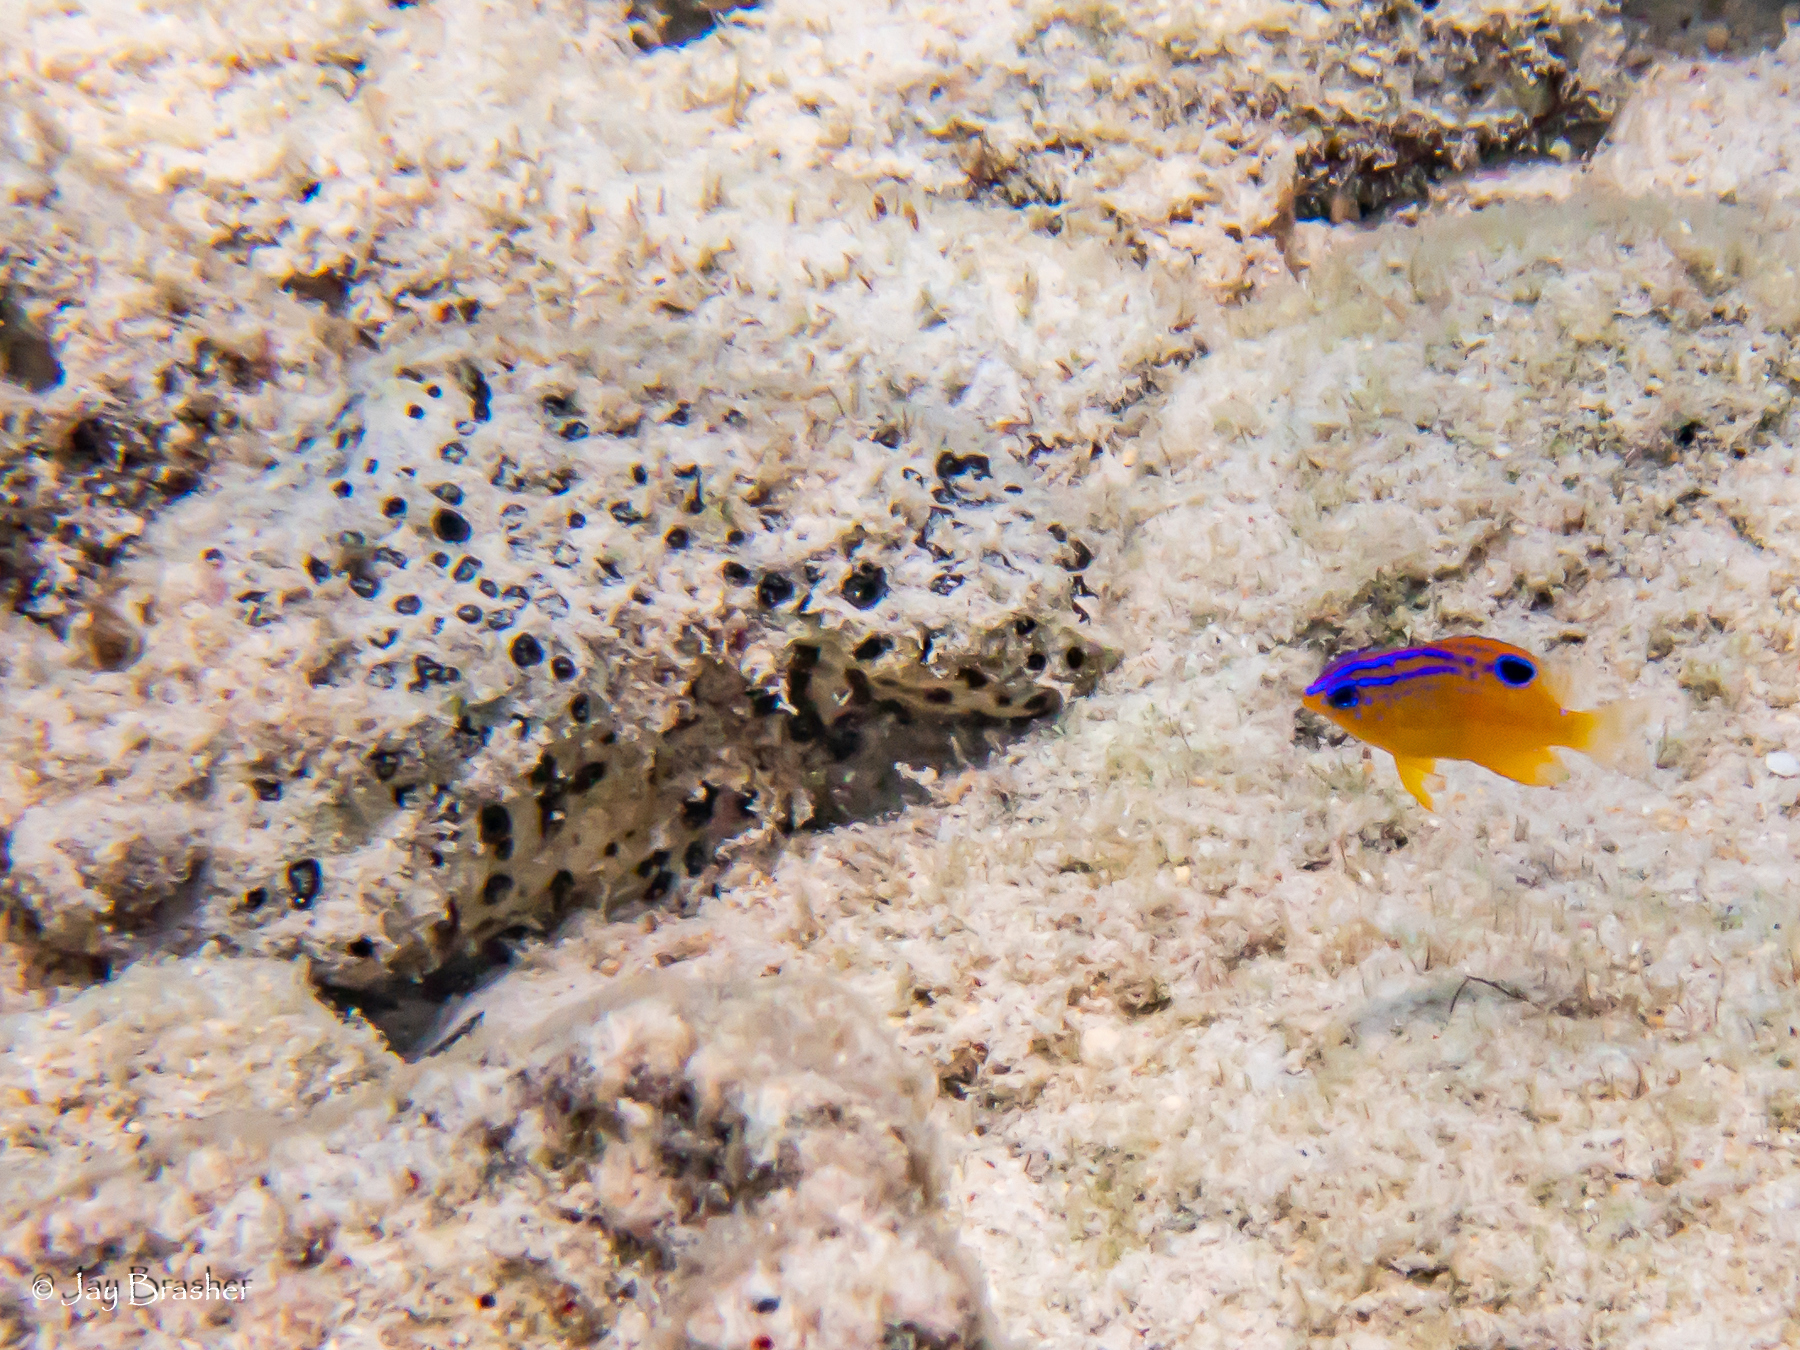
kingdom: Animalia
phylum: Chordata
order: Perciformes
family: Pomacentridae
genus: Stegastes
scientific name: Stegastes diencaeus
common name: Longfin damselfish
